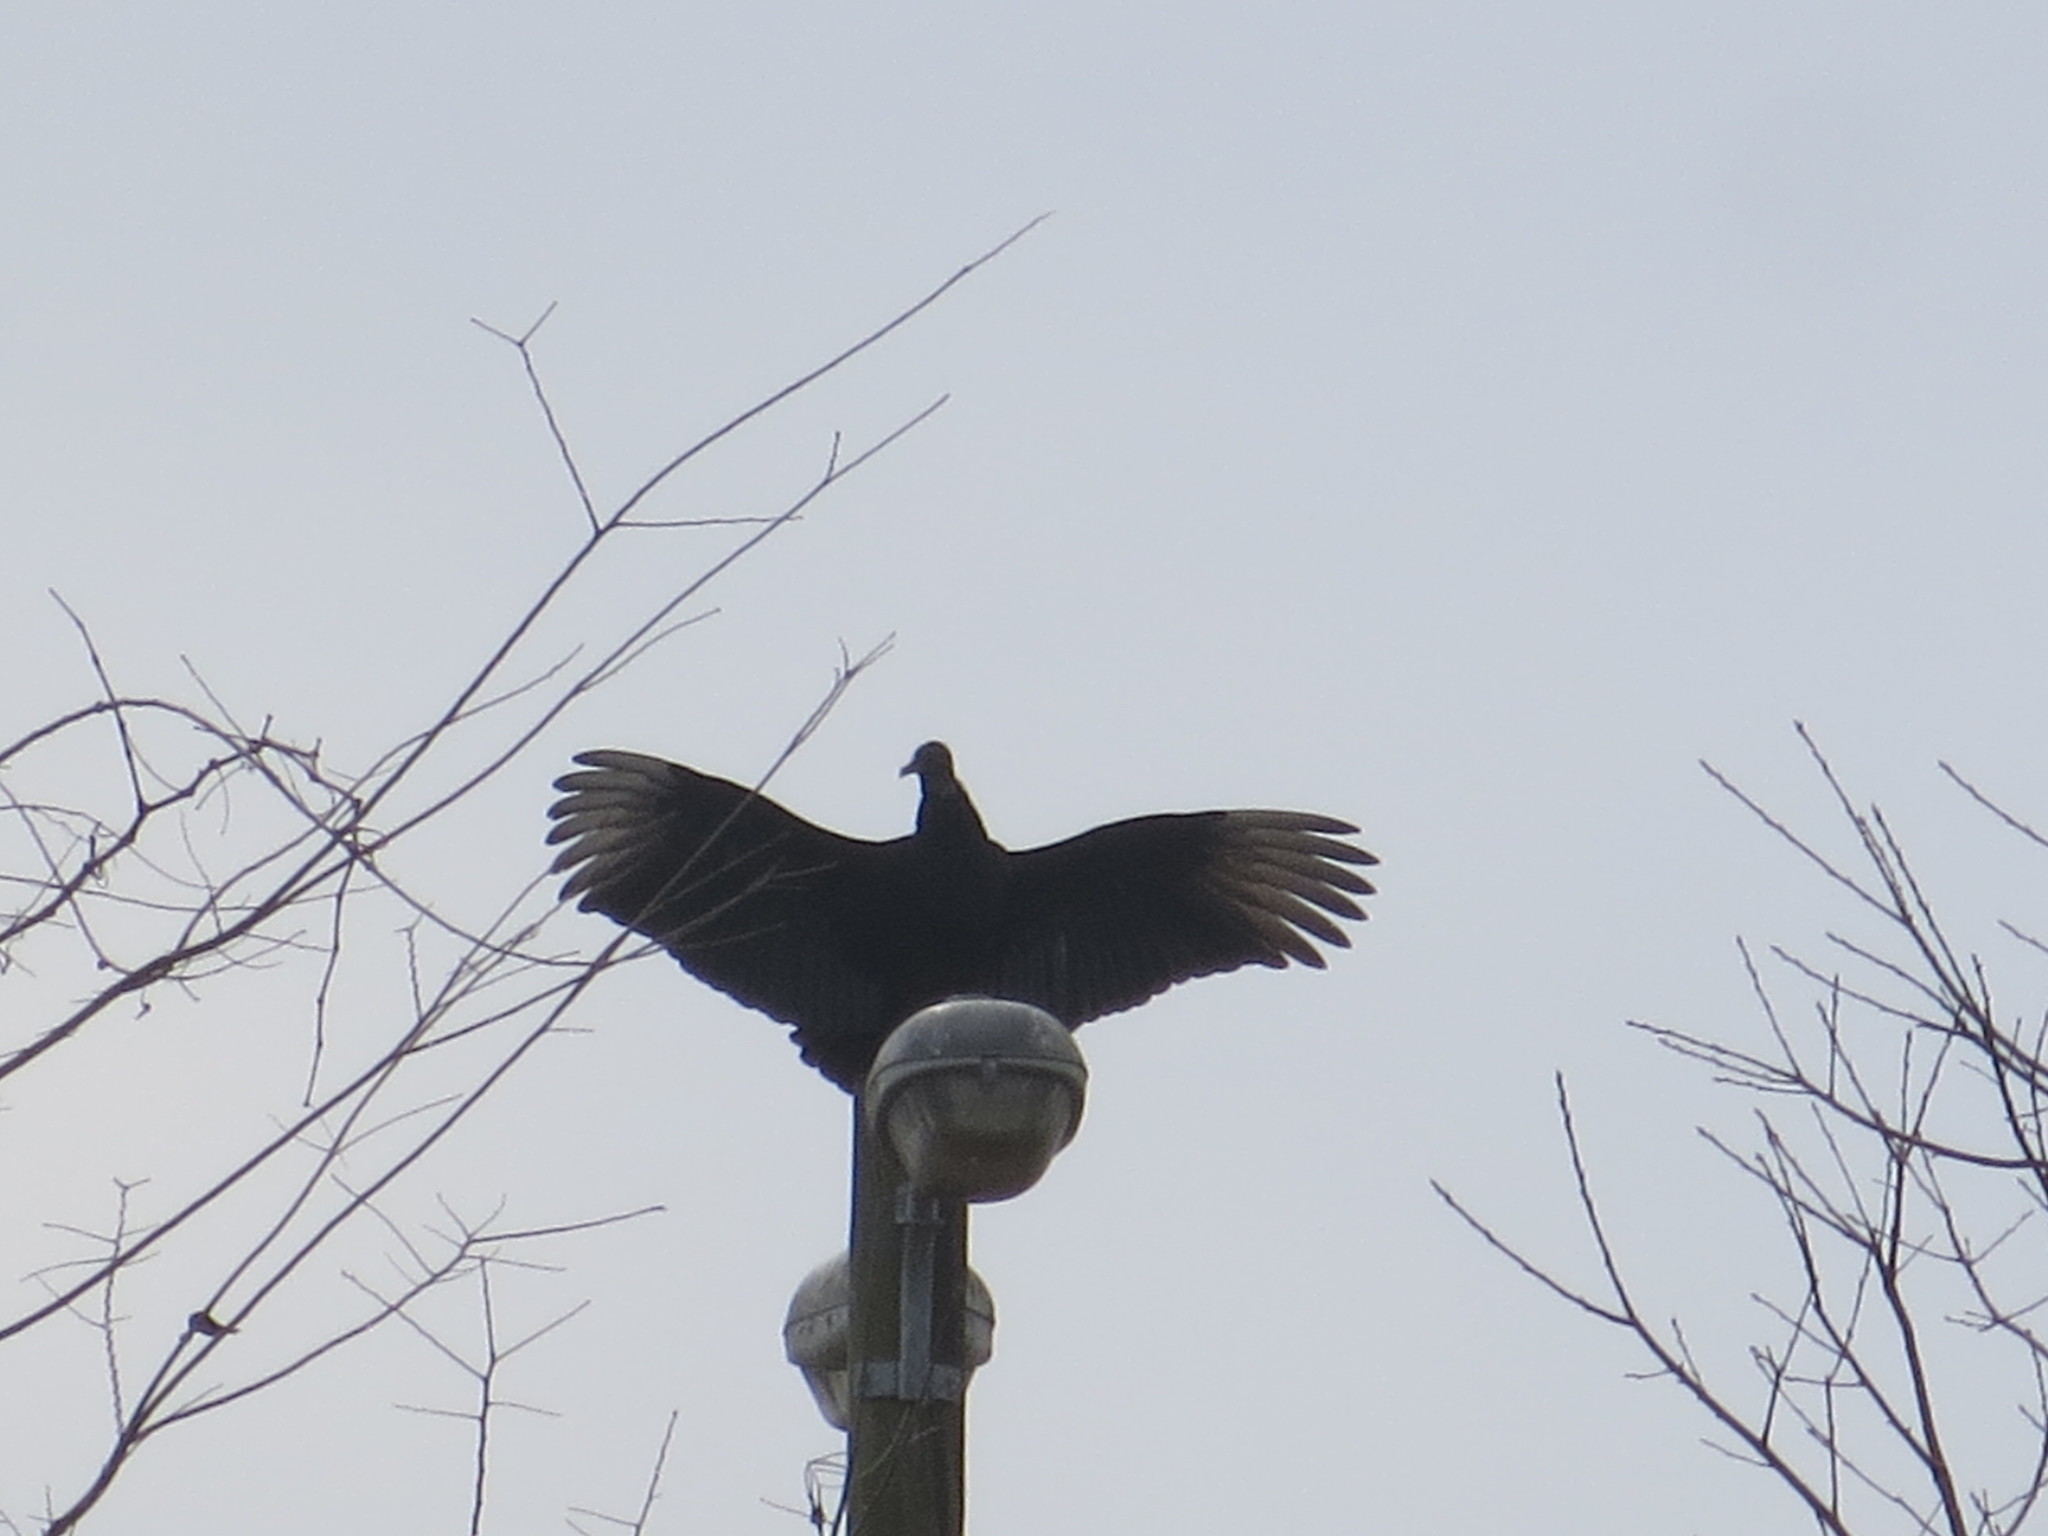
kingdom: Animalia
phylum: Chordata
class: Aves
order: Accipitriformes
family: Cathartidae
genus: Coragyps
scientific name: Coragyps atratus
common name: Black vulture
